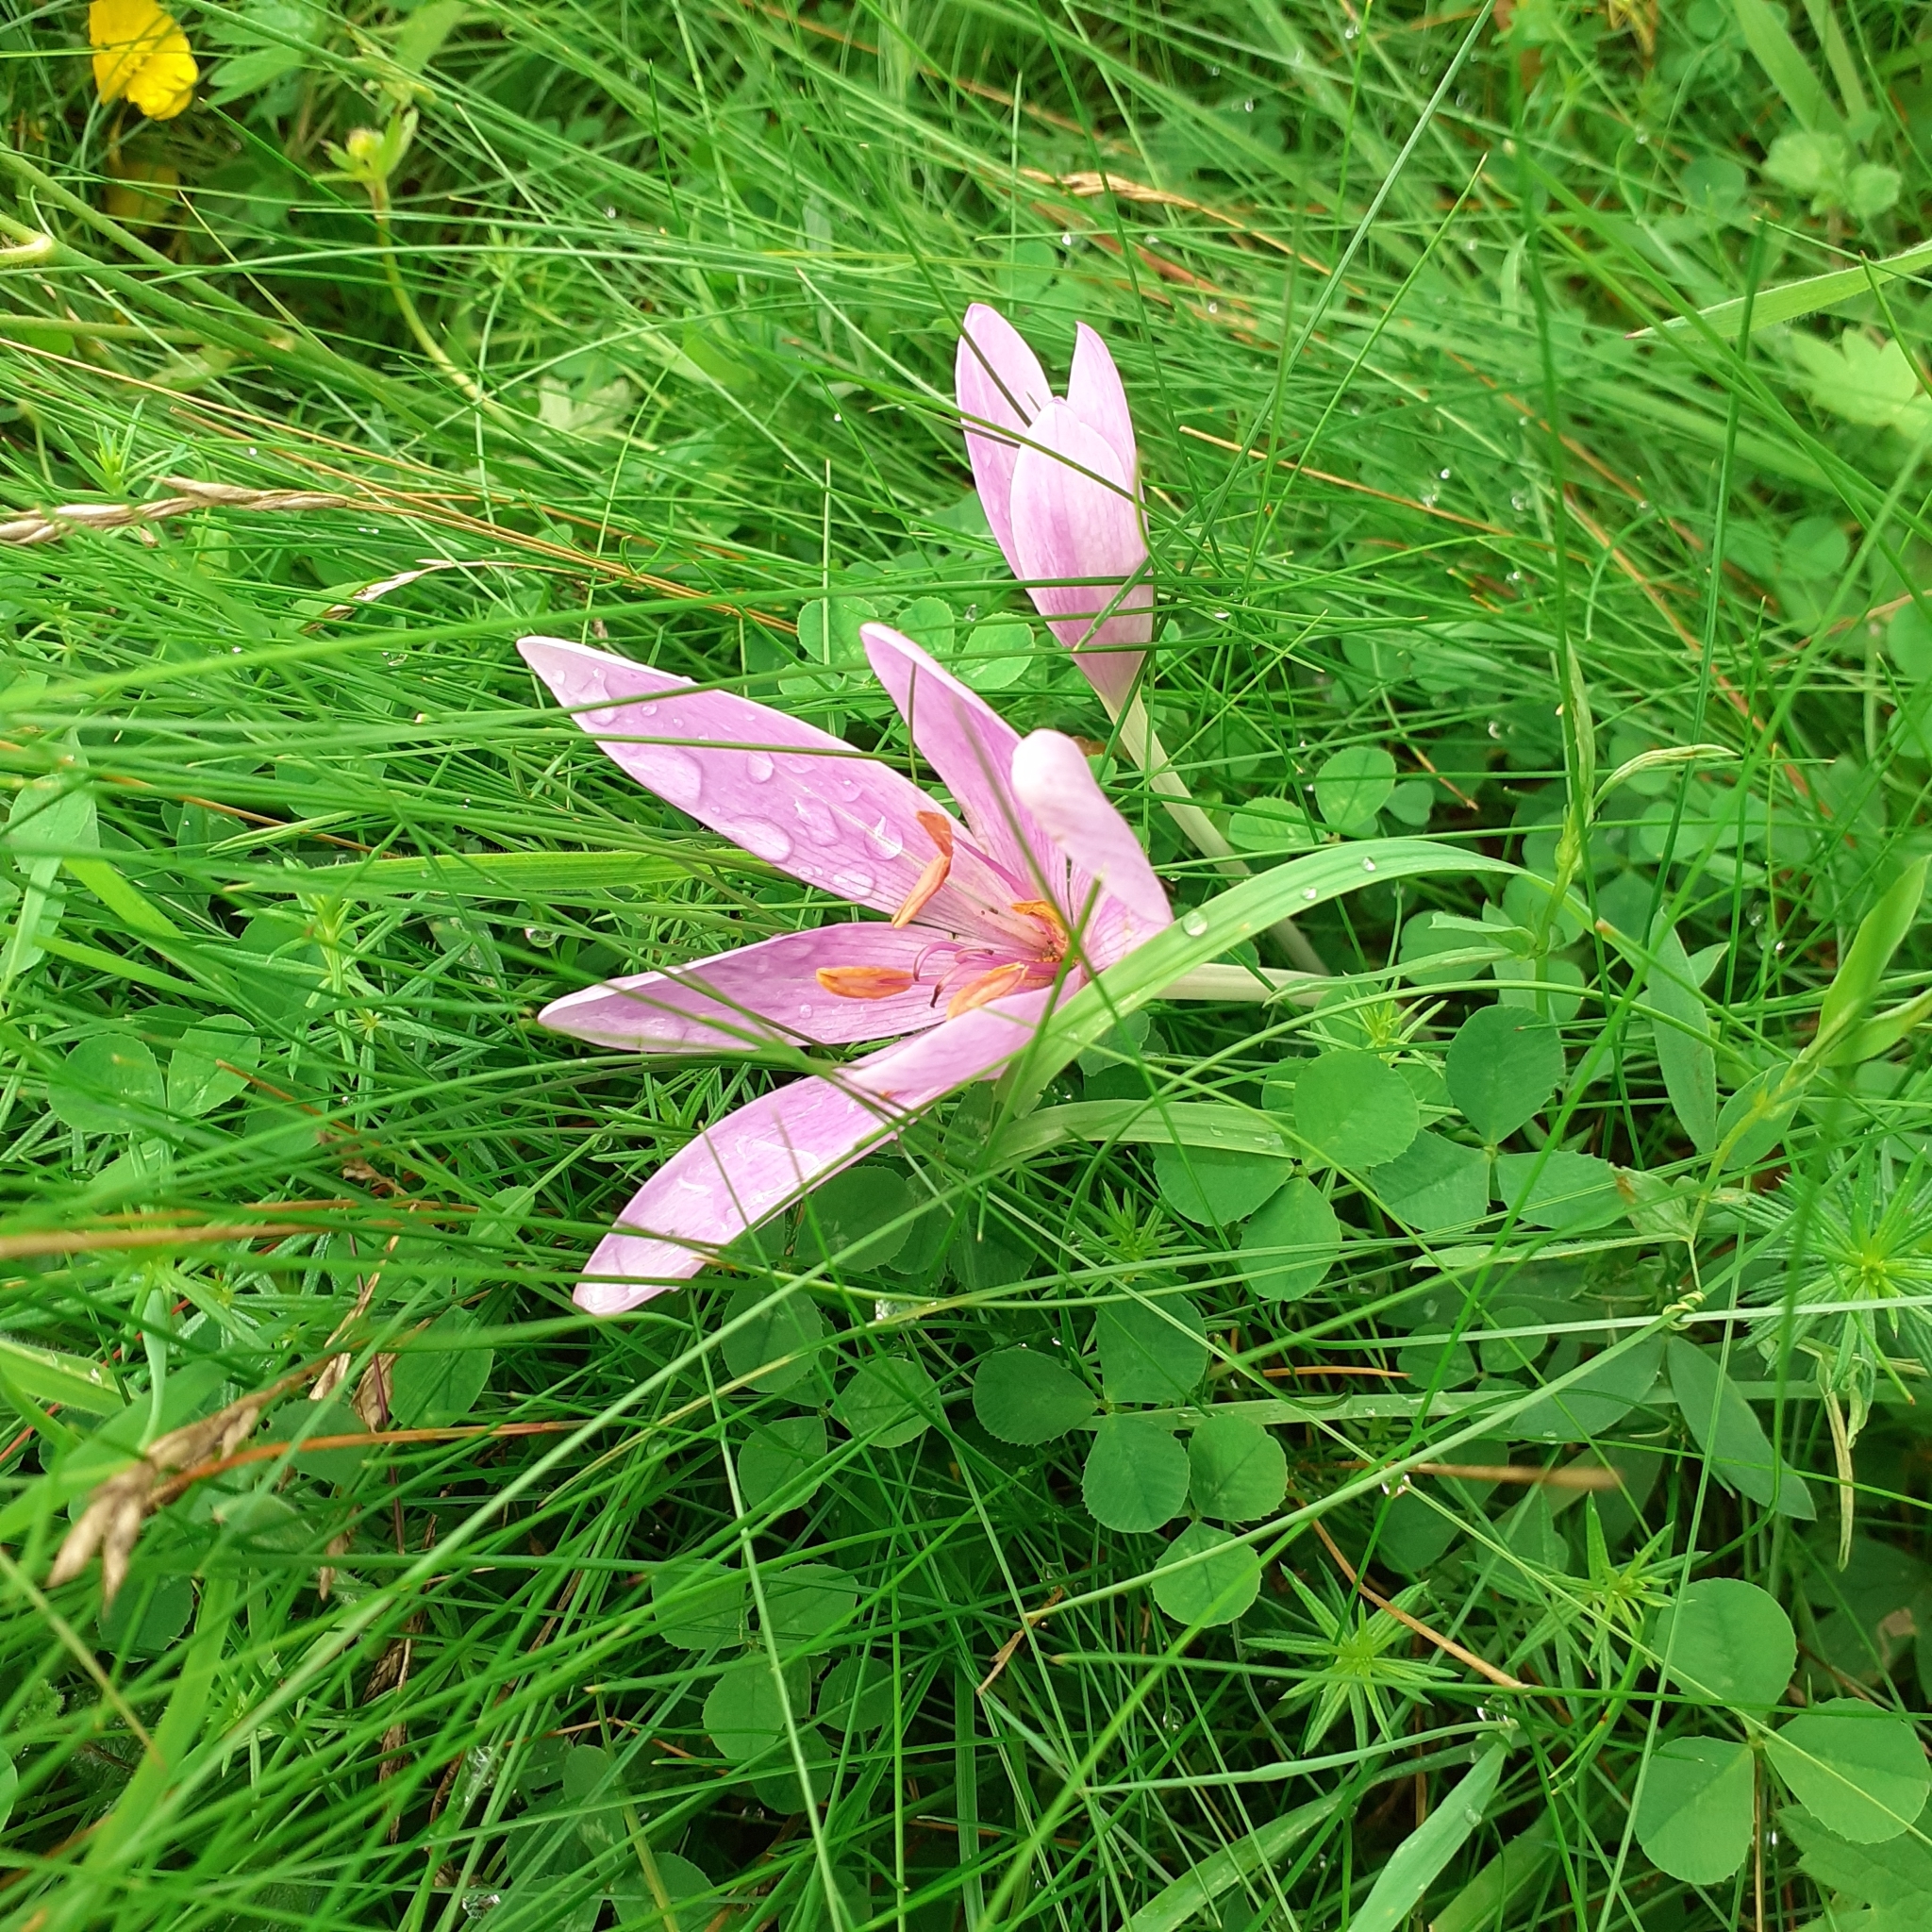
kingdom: Plantae
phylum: Tracheophyta
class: Liliopsida
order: Liliales
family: Colchicaceae
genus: Colchicum
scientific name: Colchicum autumnale
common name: Autumn crocus
